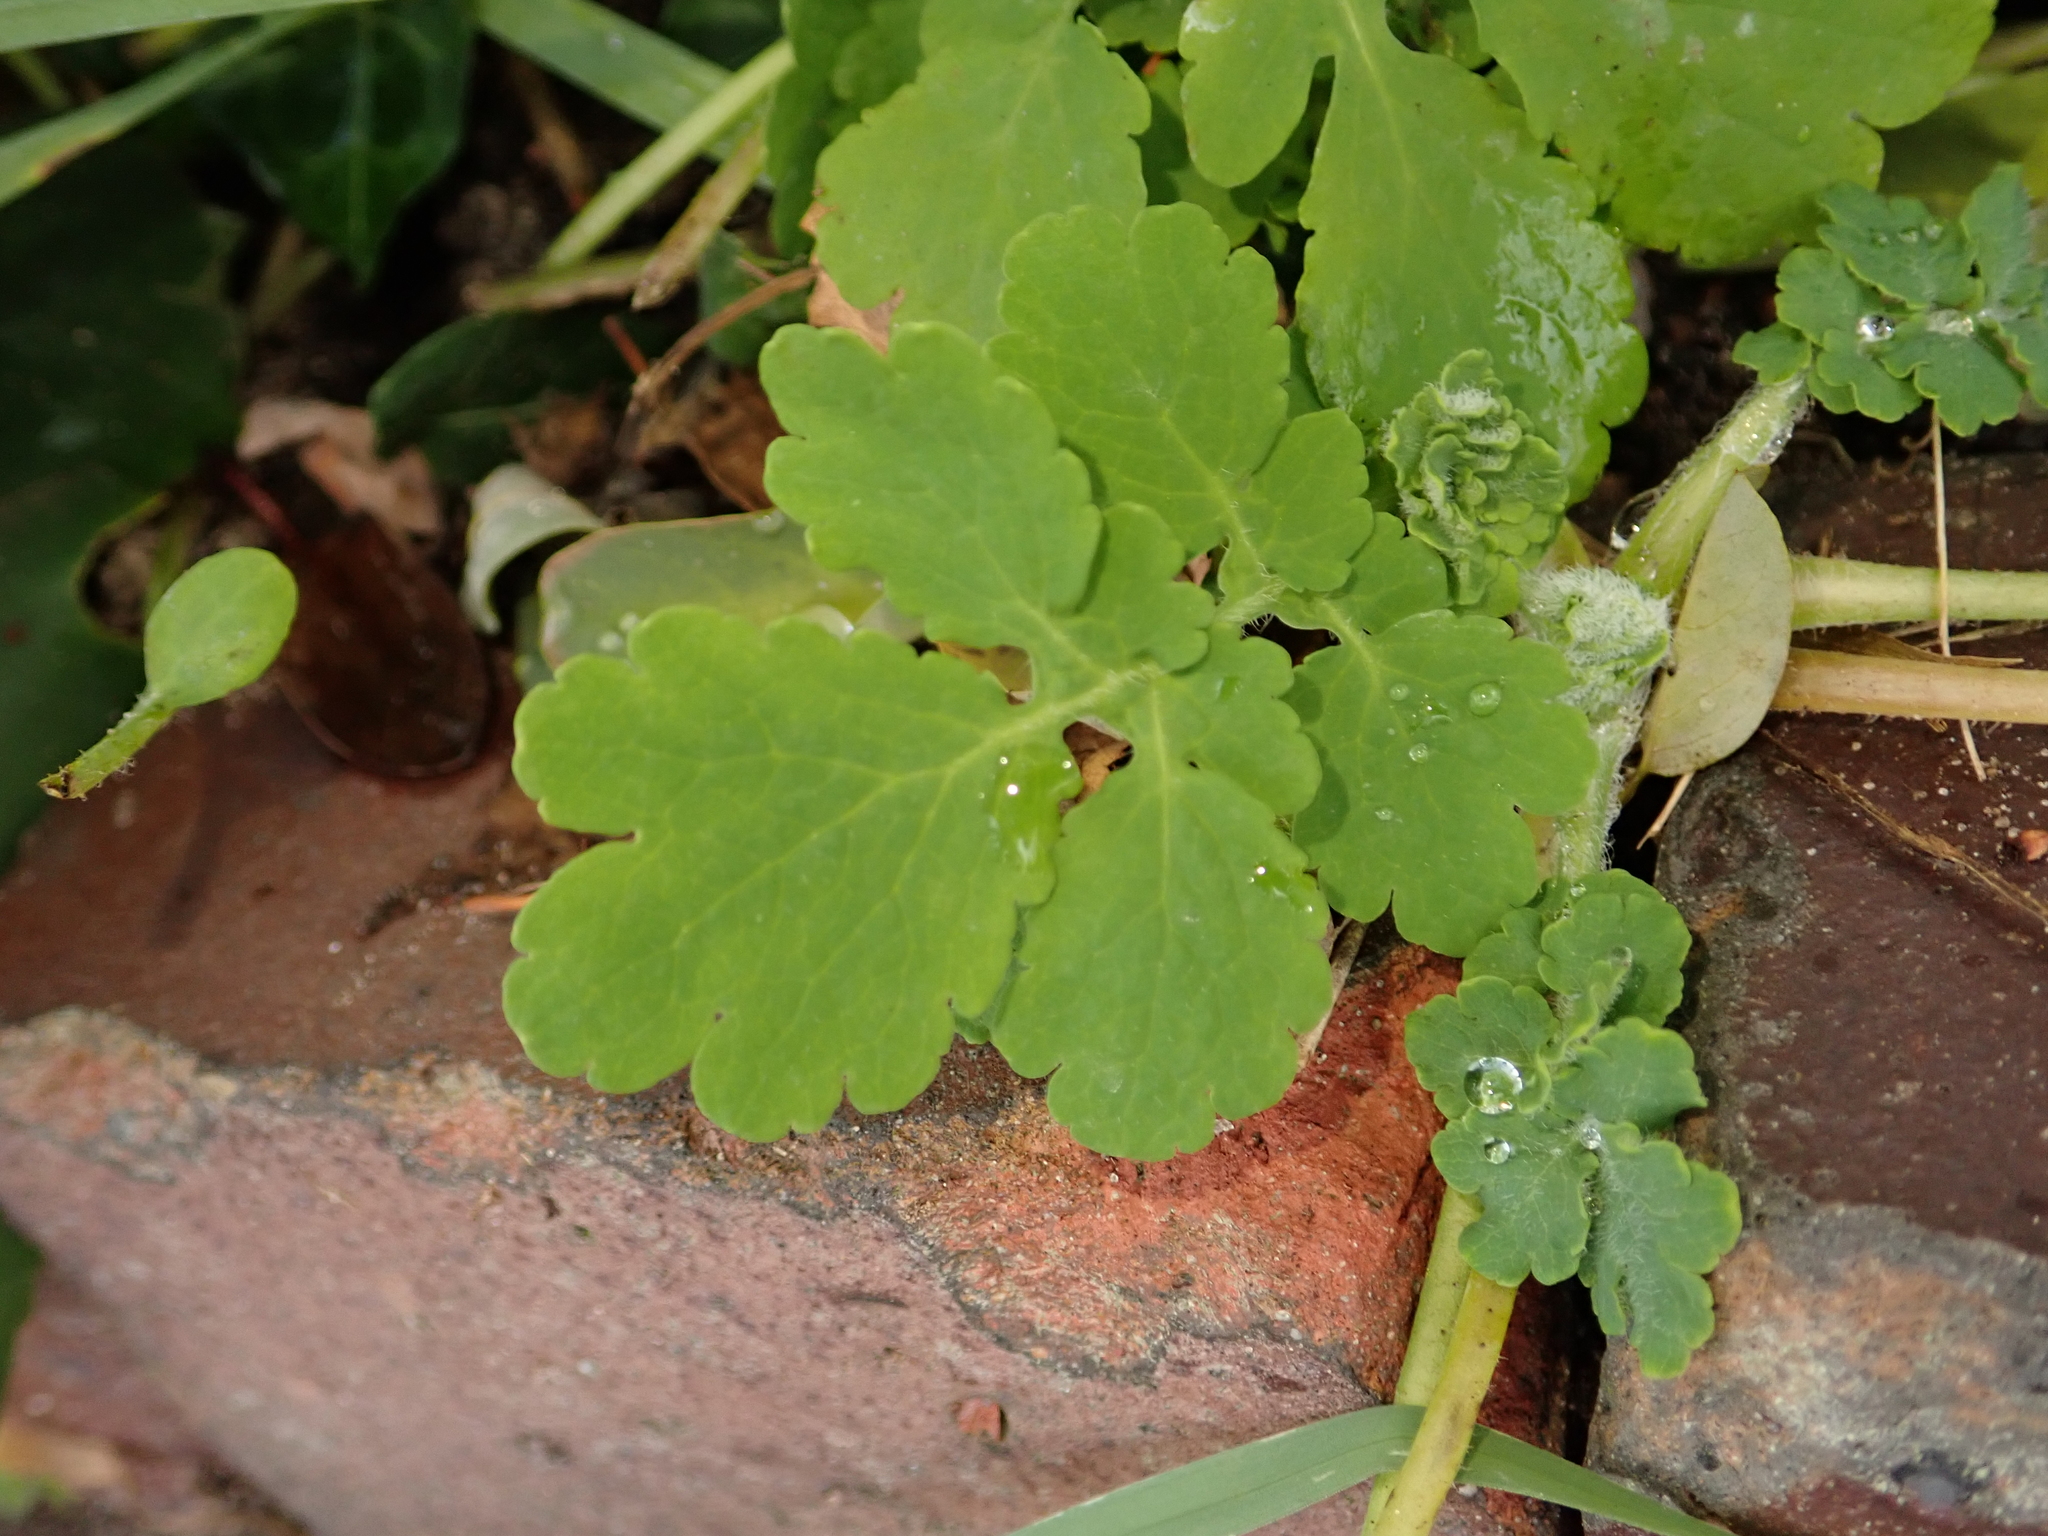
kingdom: Plantae
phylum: Tracheophyta
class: Magnoliopsida
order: Ranunculales
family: Papaveraceae
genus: Chelidonium
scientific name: Chelidonium majus
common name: Greater celandine
